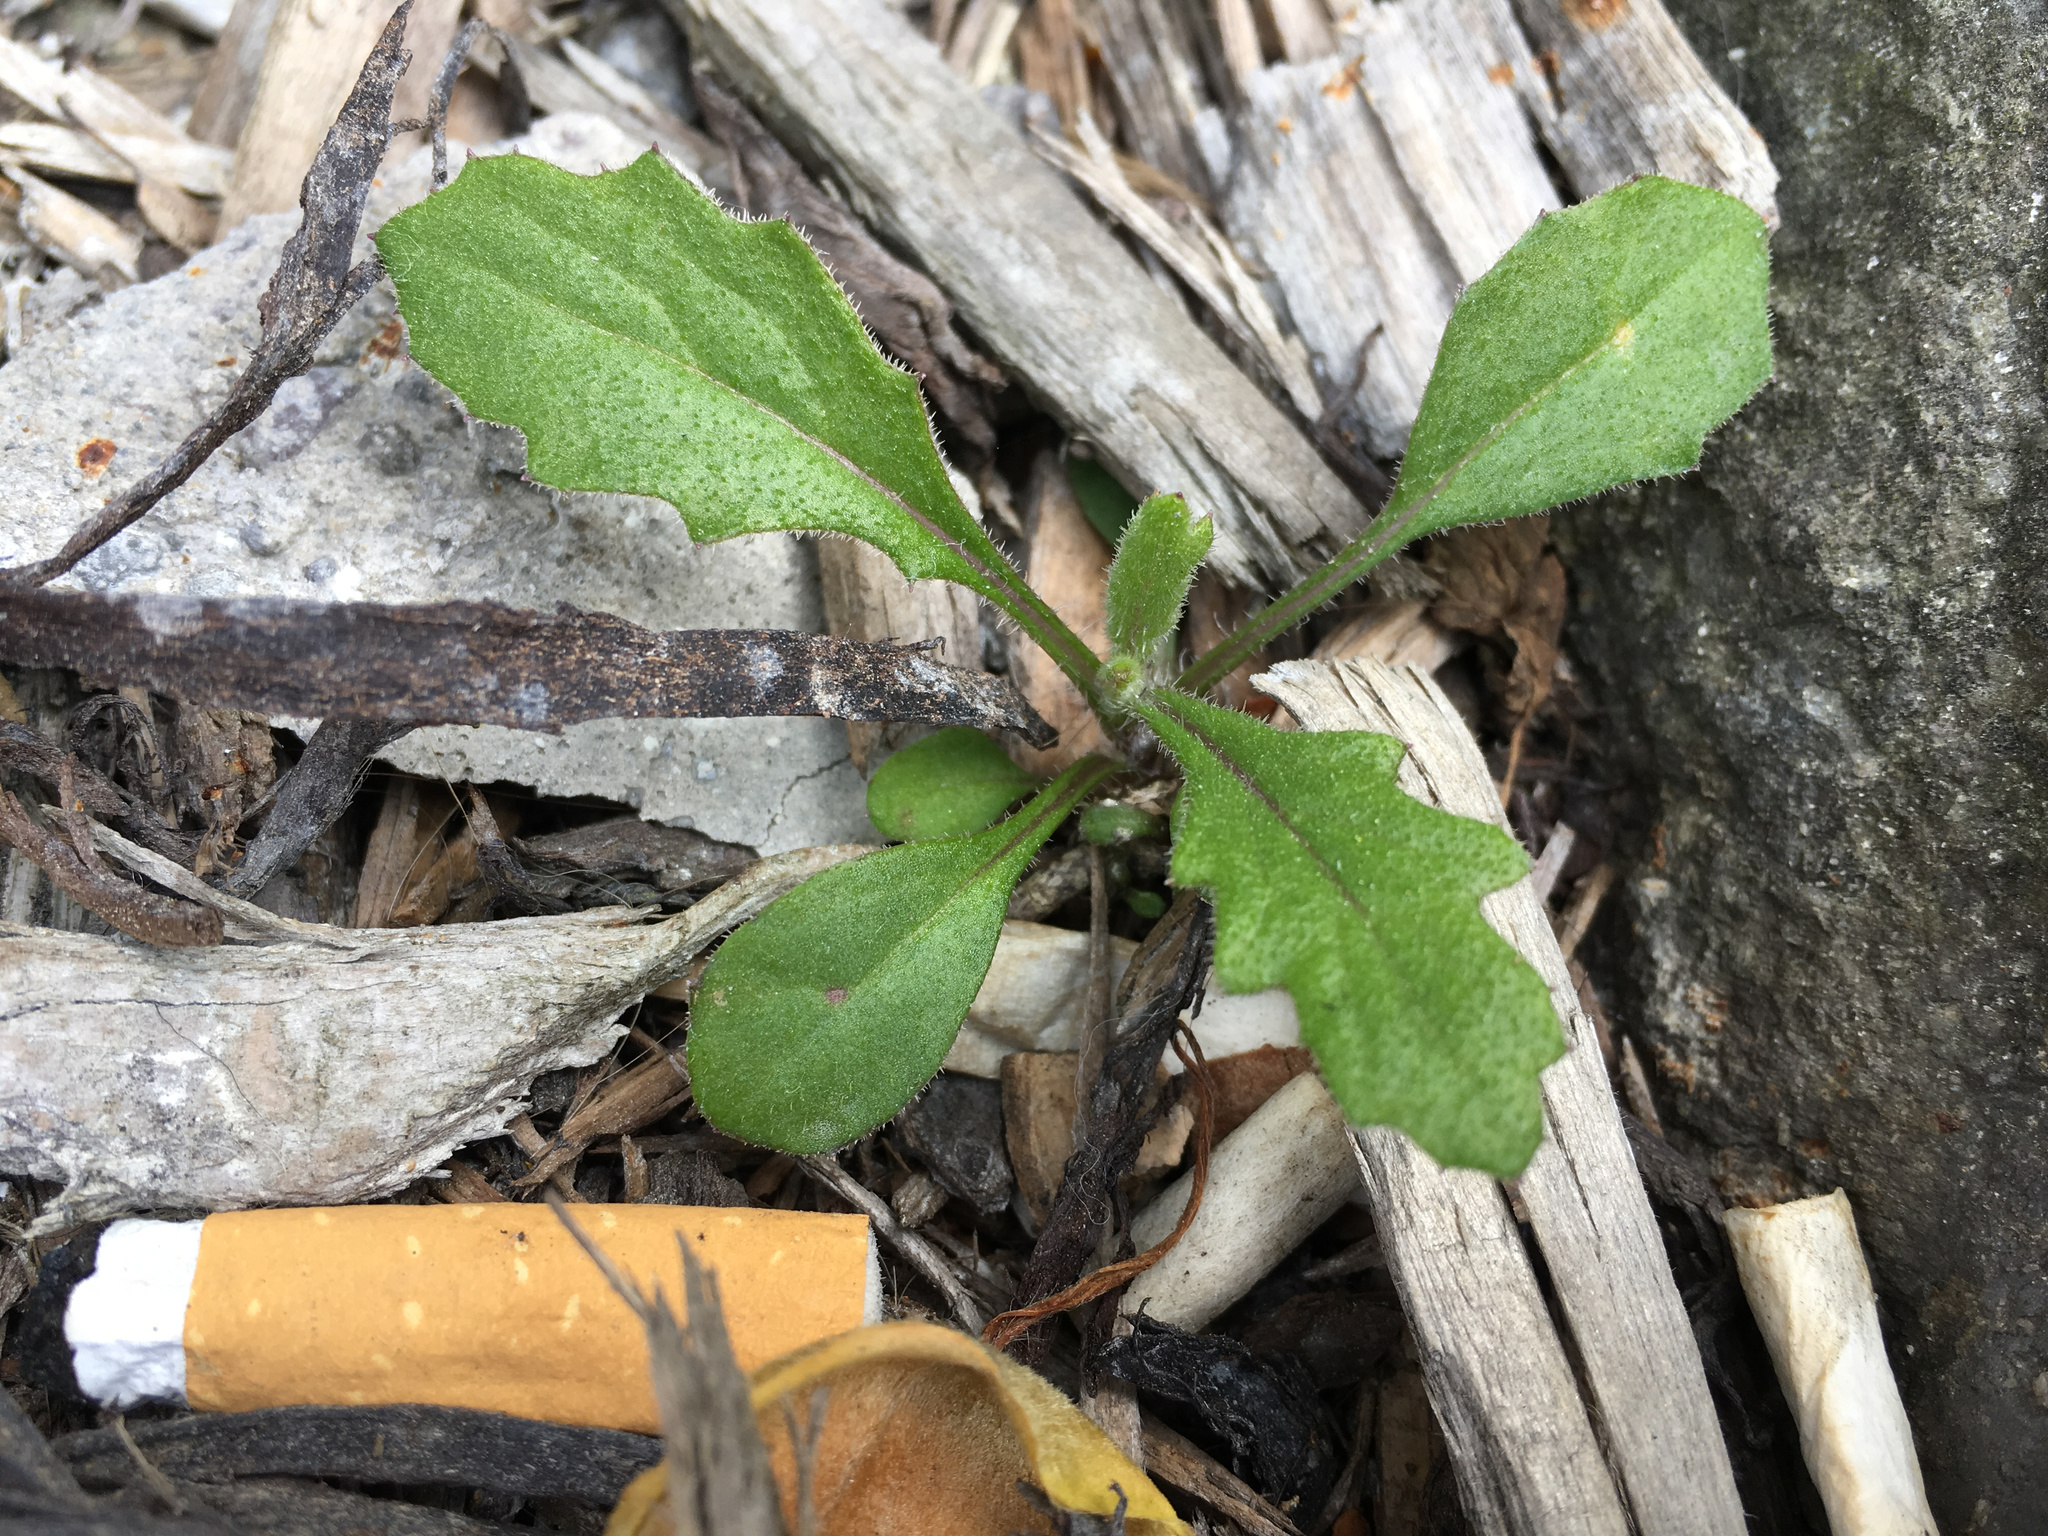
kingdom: Plantae
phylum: Tracheophyta
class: Magnoliopsida
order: Asterales
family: Asteraceae
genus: Senecio
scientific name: Senecio minimus
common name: Toothed fireweed
